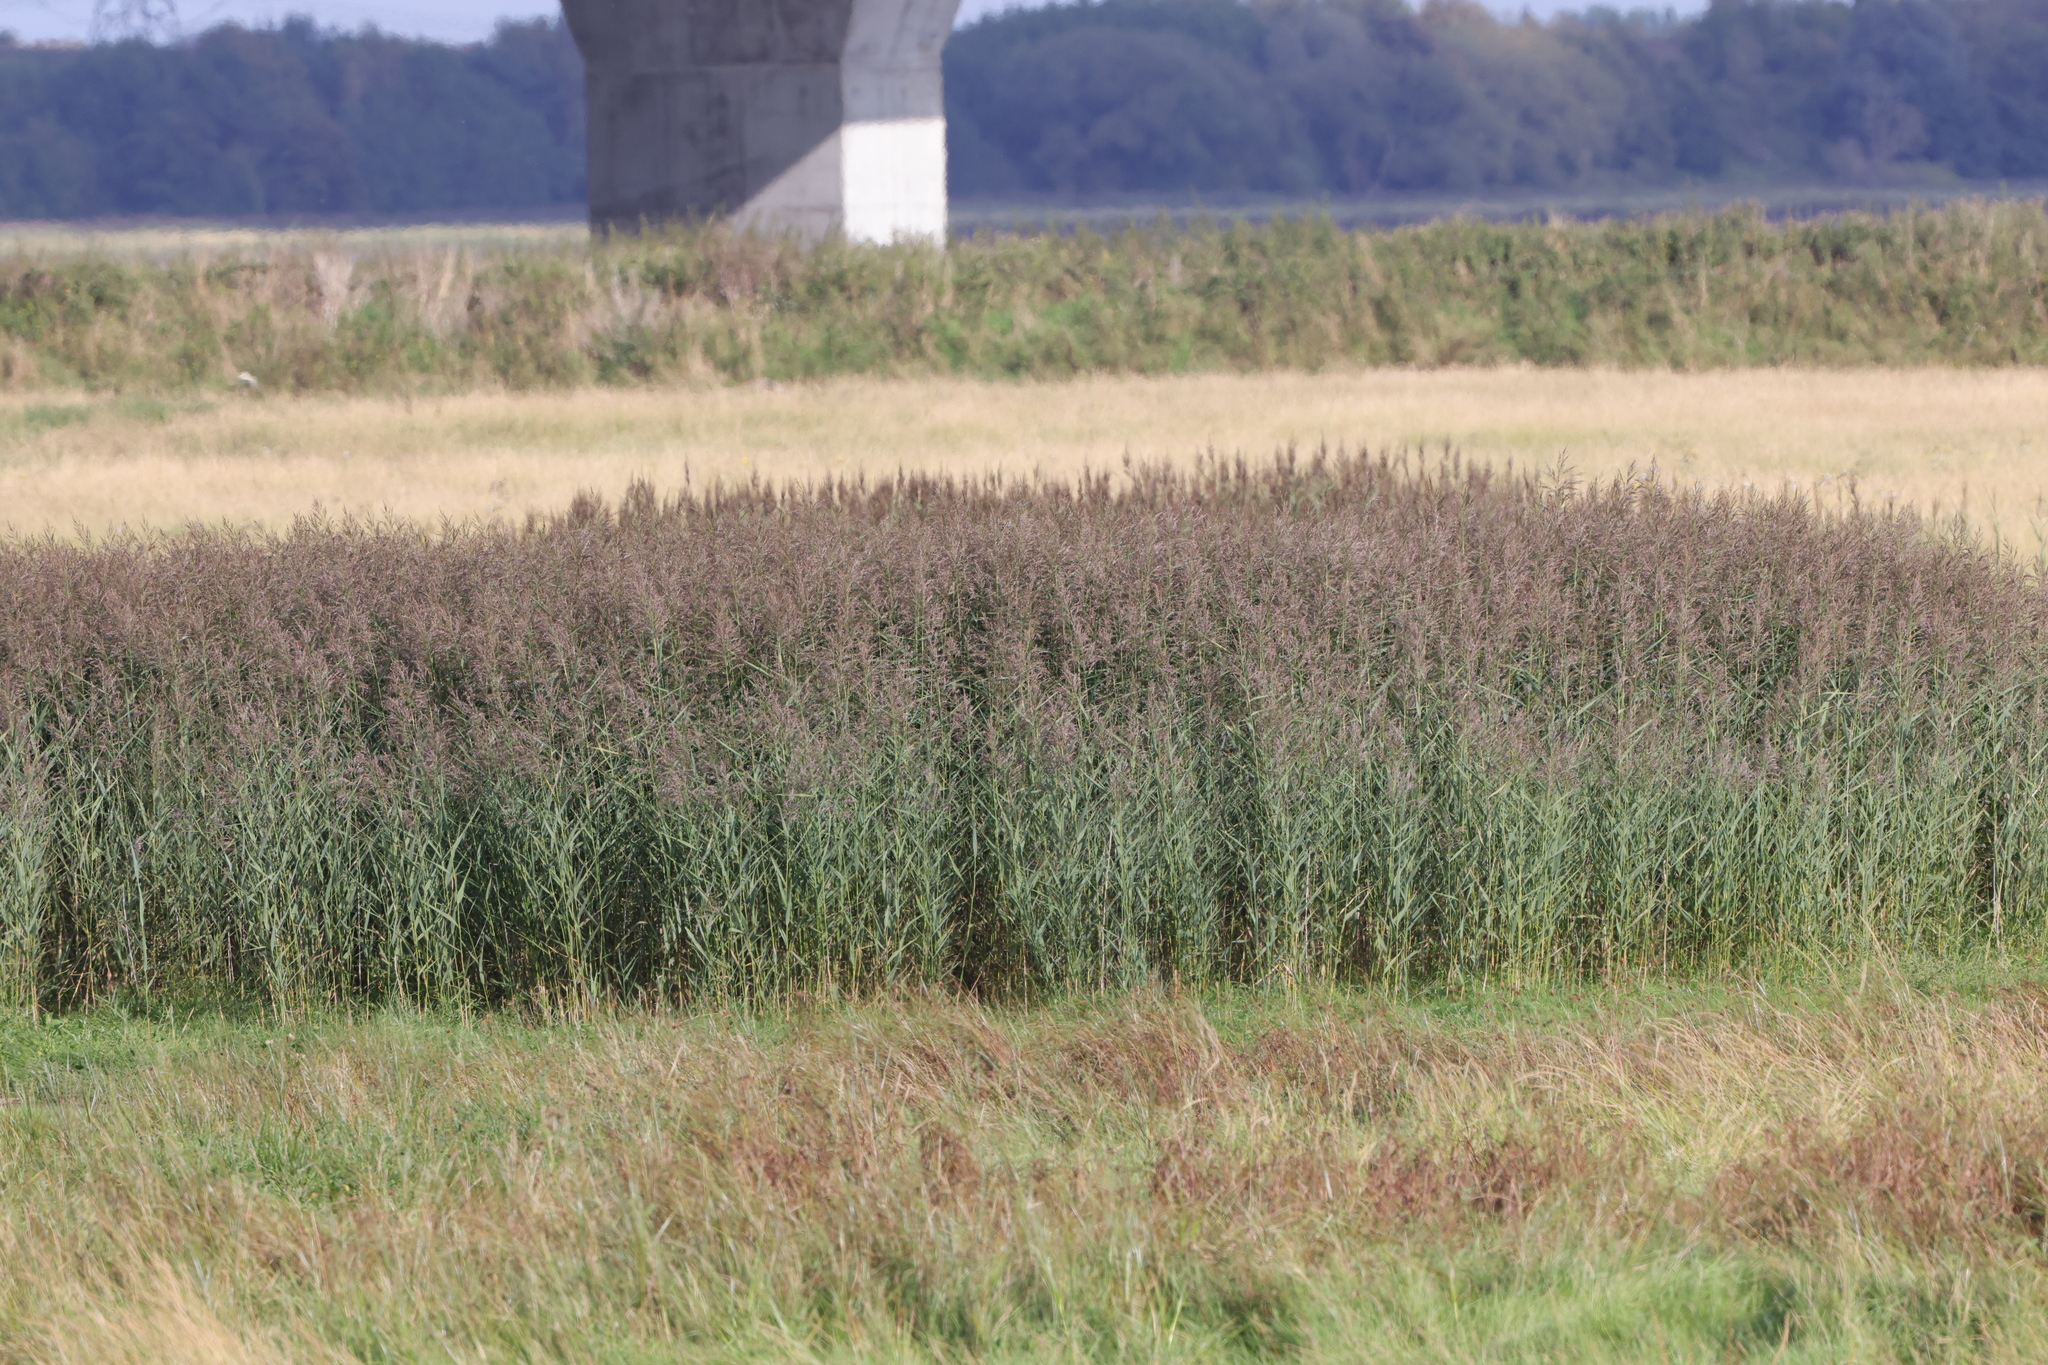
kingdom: Plantae
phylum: Tracheophyta
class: Liliopsida
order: Poales
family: Poaceae
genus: Phragmites
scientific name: Phragmites australis
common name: Common reed
